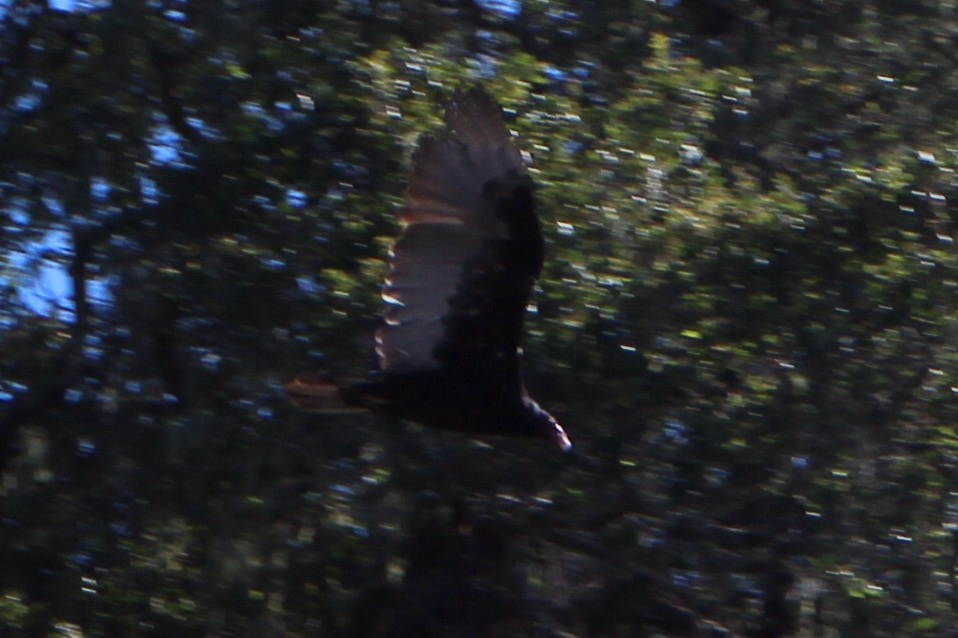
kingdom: Animalia
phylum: Chordata
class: Aves
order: Accipitriformes
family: Cathartidae
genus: Cathartes
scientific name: Cathartes aura
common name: Turkey vulture
